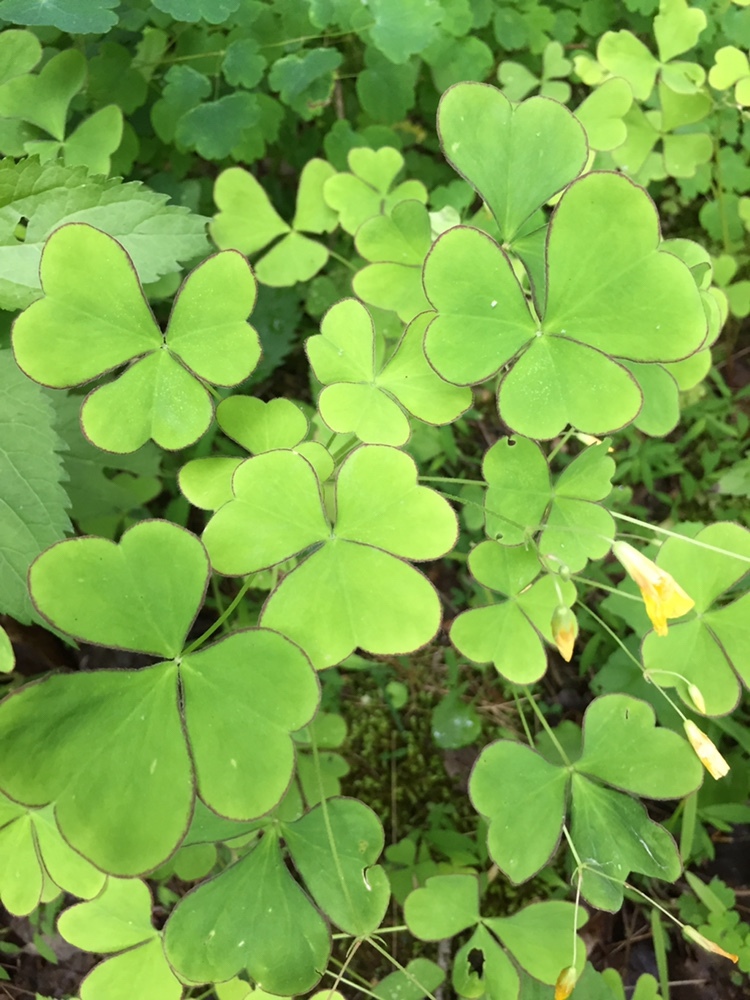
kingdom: Plantae
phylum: Tracheophyta
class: Magnoliopsida
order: Oxalidales
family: Oxalidaceae
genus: Oxalis
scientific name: Oxalis grandis
